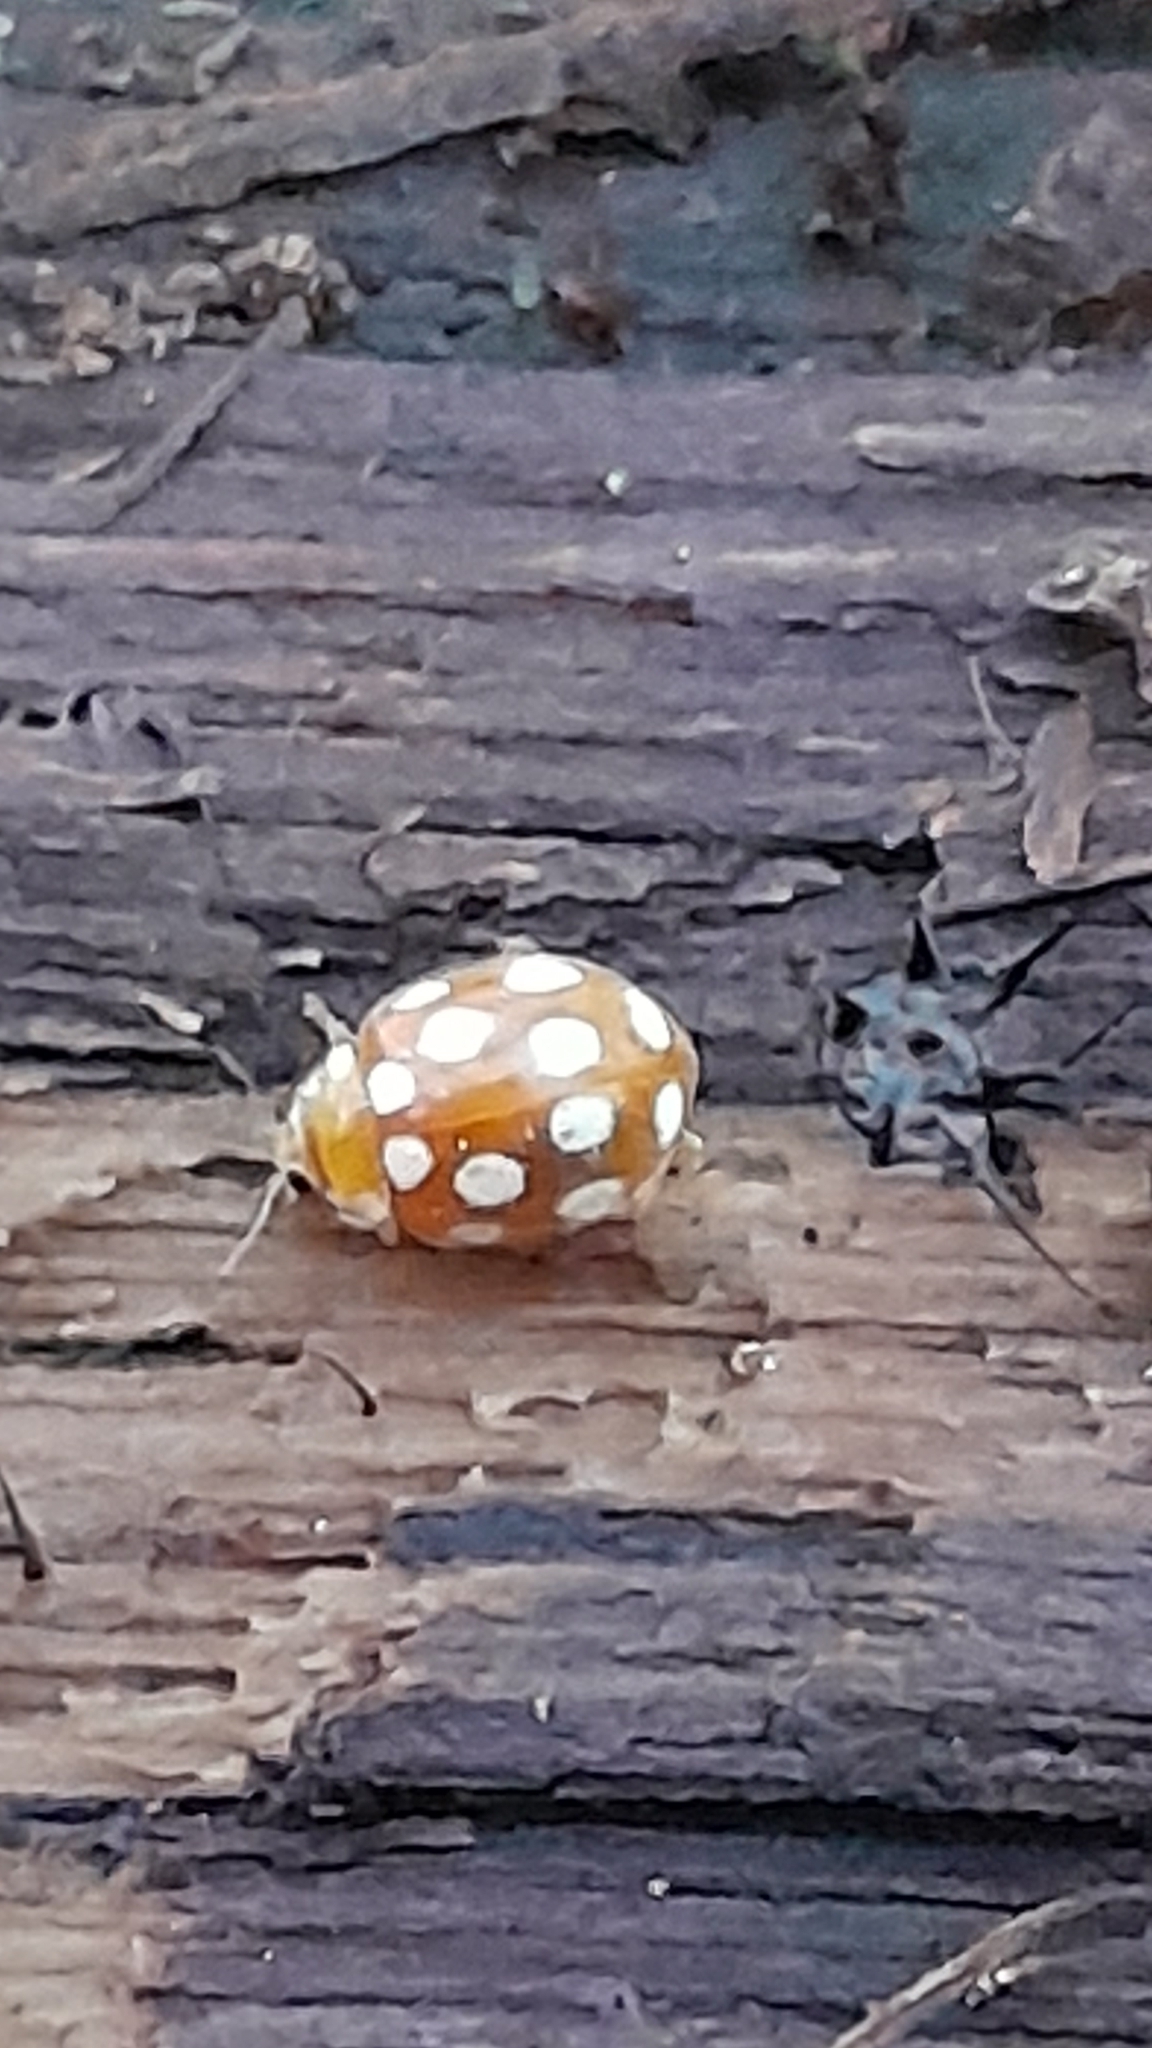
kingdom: Animalia
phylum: Arthropoda
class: Insecta
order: Coleoptera
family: Coccinellidae
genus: Vibidia
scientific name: Vibidia duodecimguttata
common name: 12-spot ladybird
